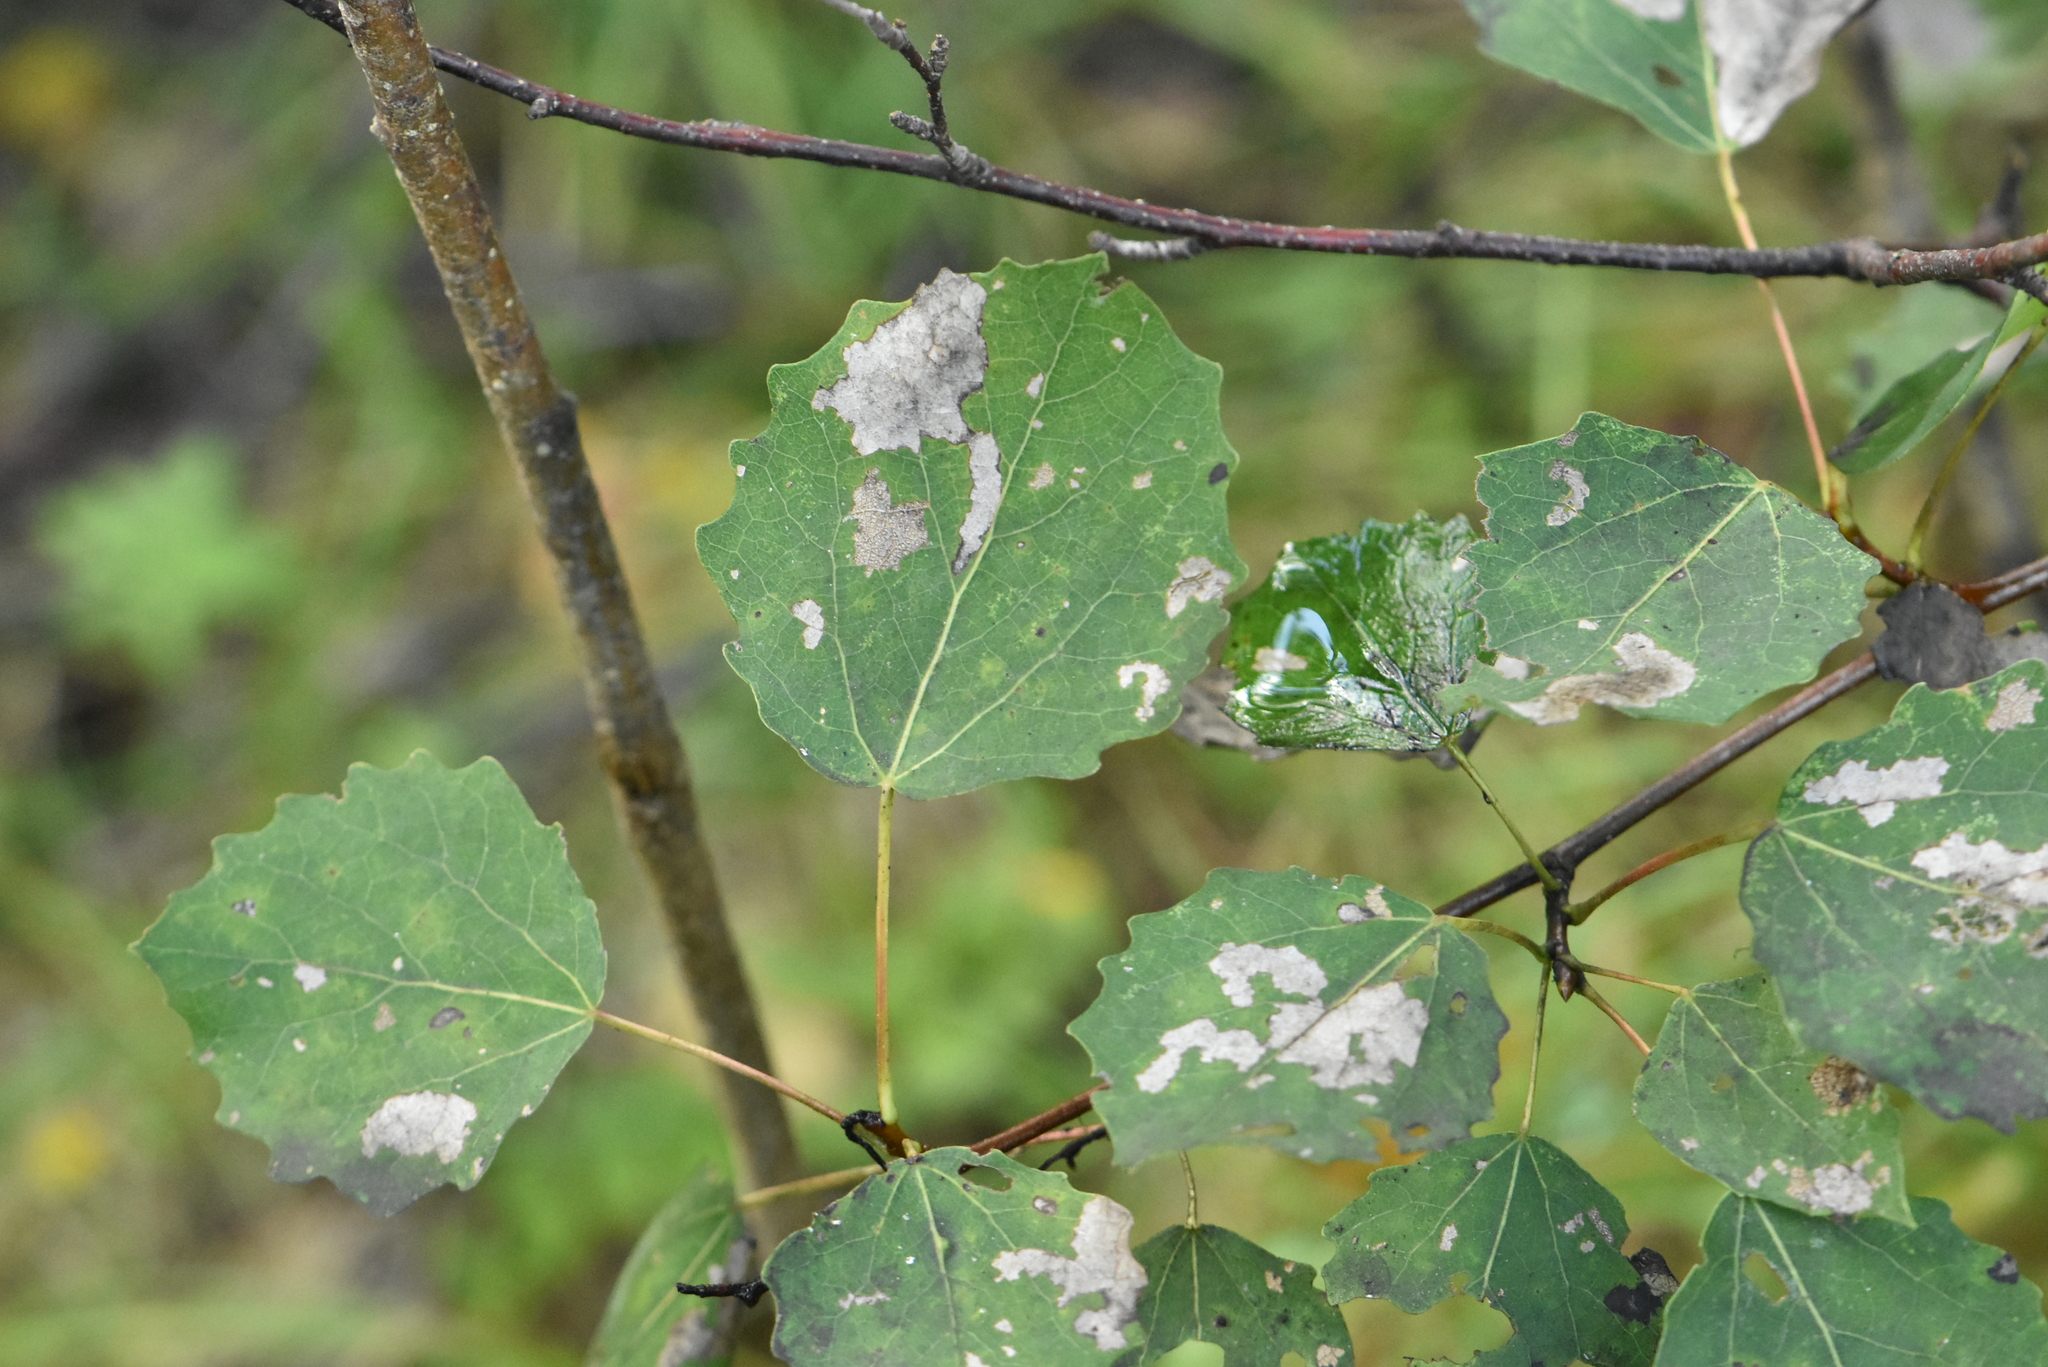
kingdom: Plantae
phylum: Tracheophyta
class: Magnoliopsida
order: Malpighiales
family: Salicaceae
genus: Populus
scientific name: Populus tremula
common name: European aspen
